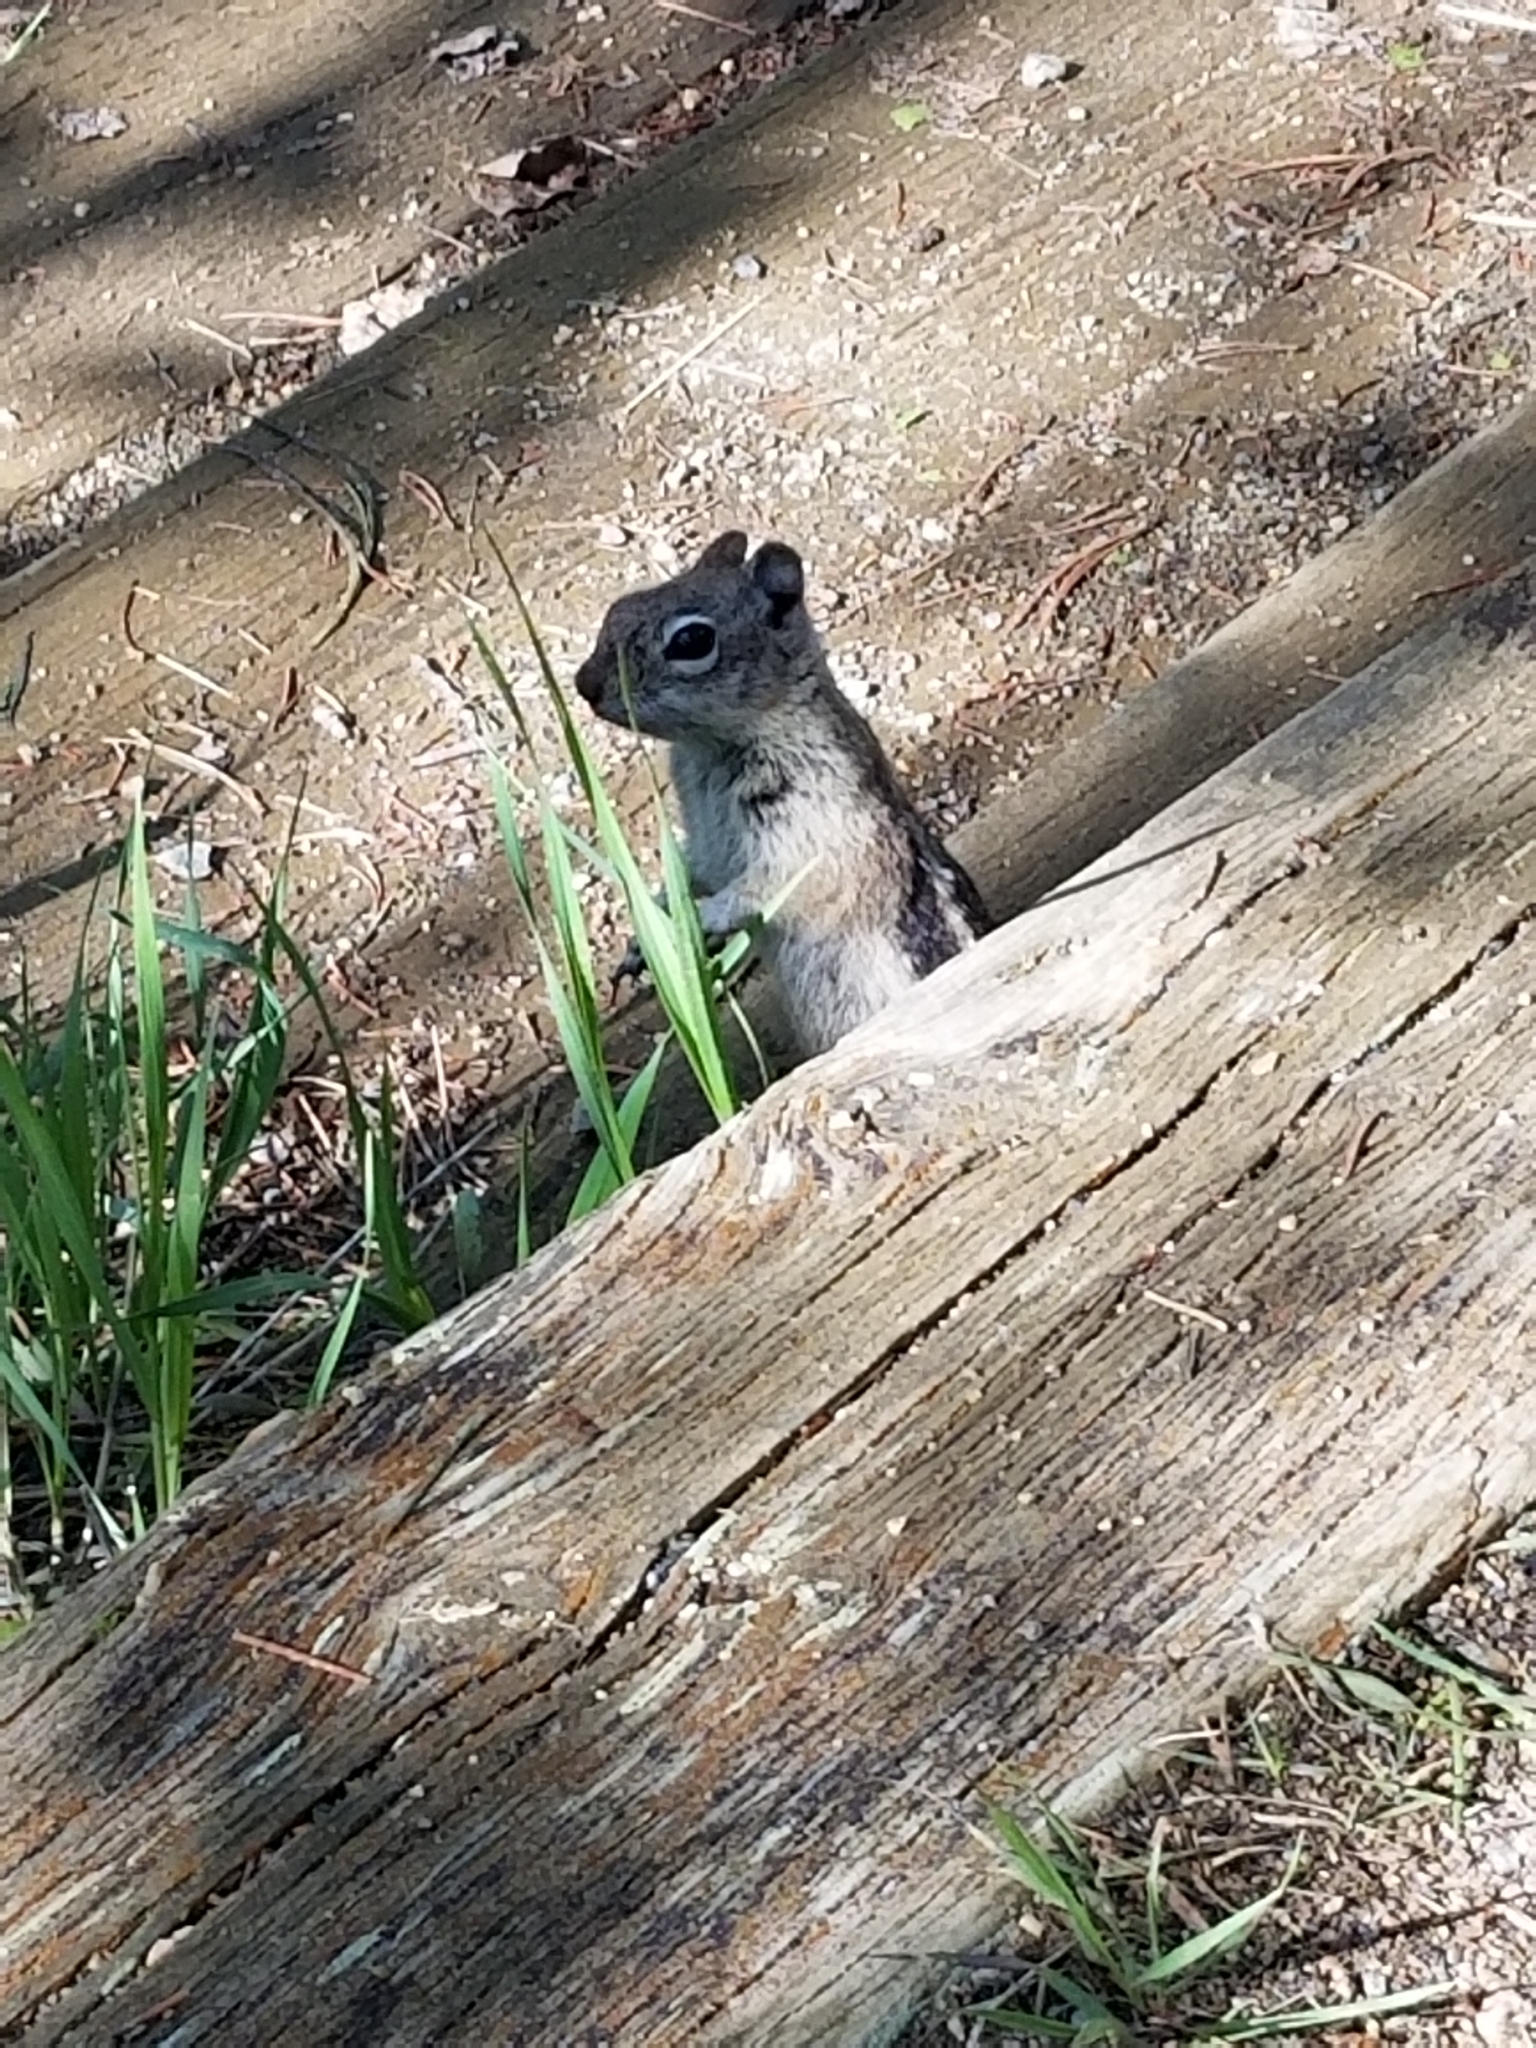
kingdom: Animalia
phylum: Chordata
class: Mammalia
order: Rodentia
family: Sciuridae
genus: Callospermophilus
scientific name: Callospermophilus lateralis
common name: Golden-mantled ground squirrel
